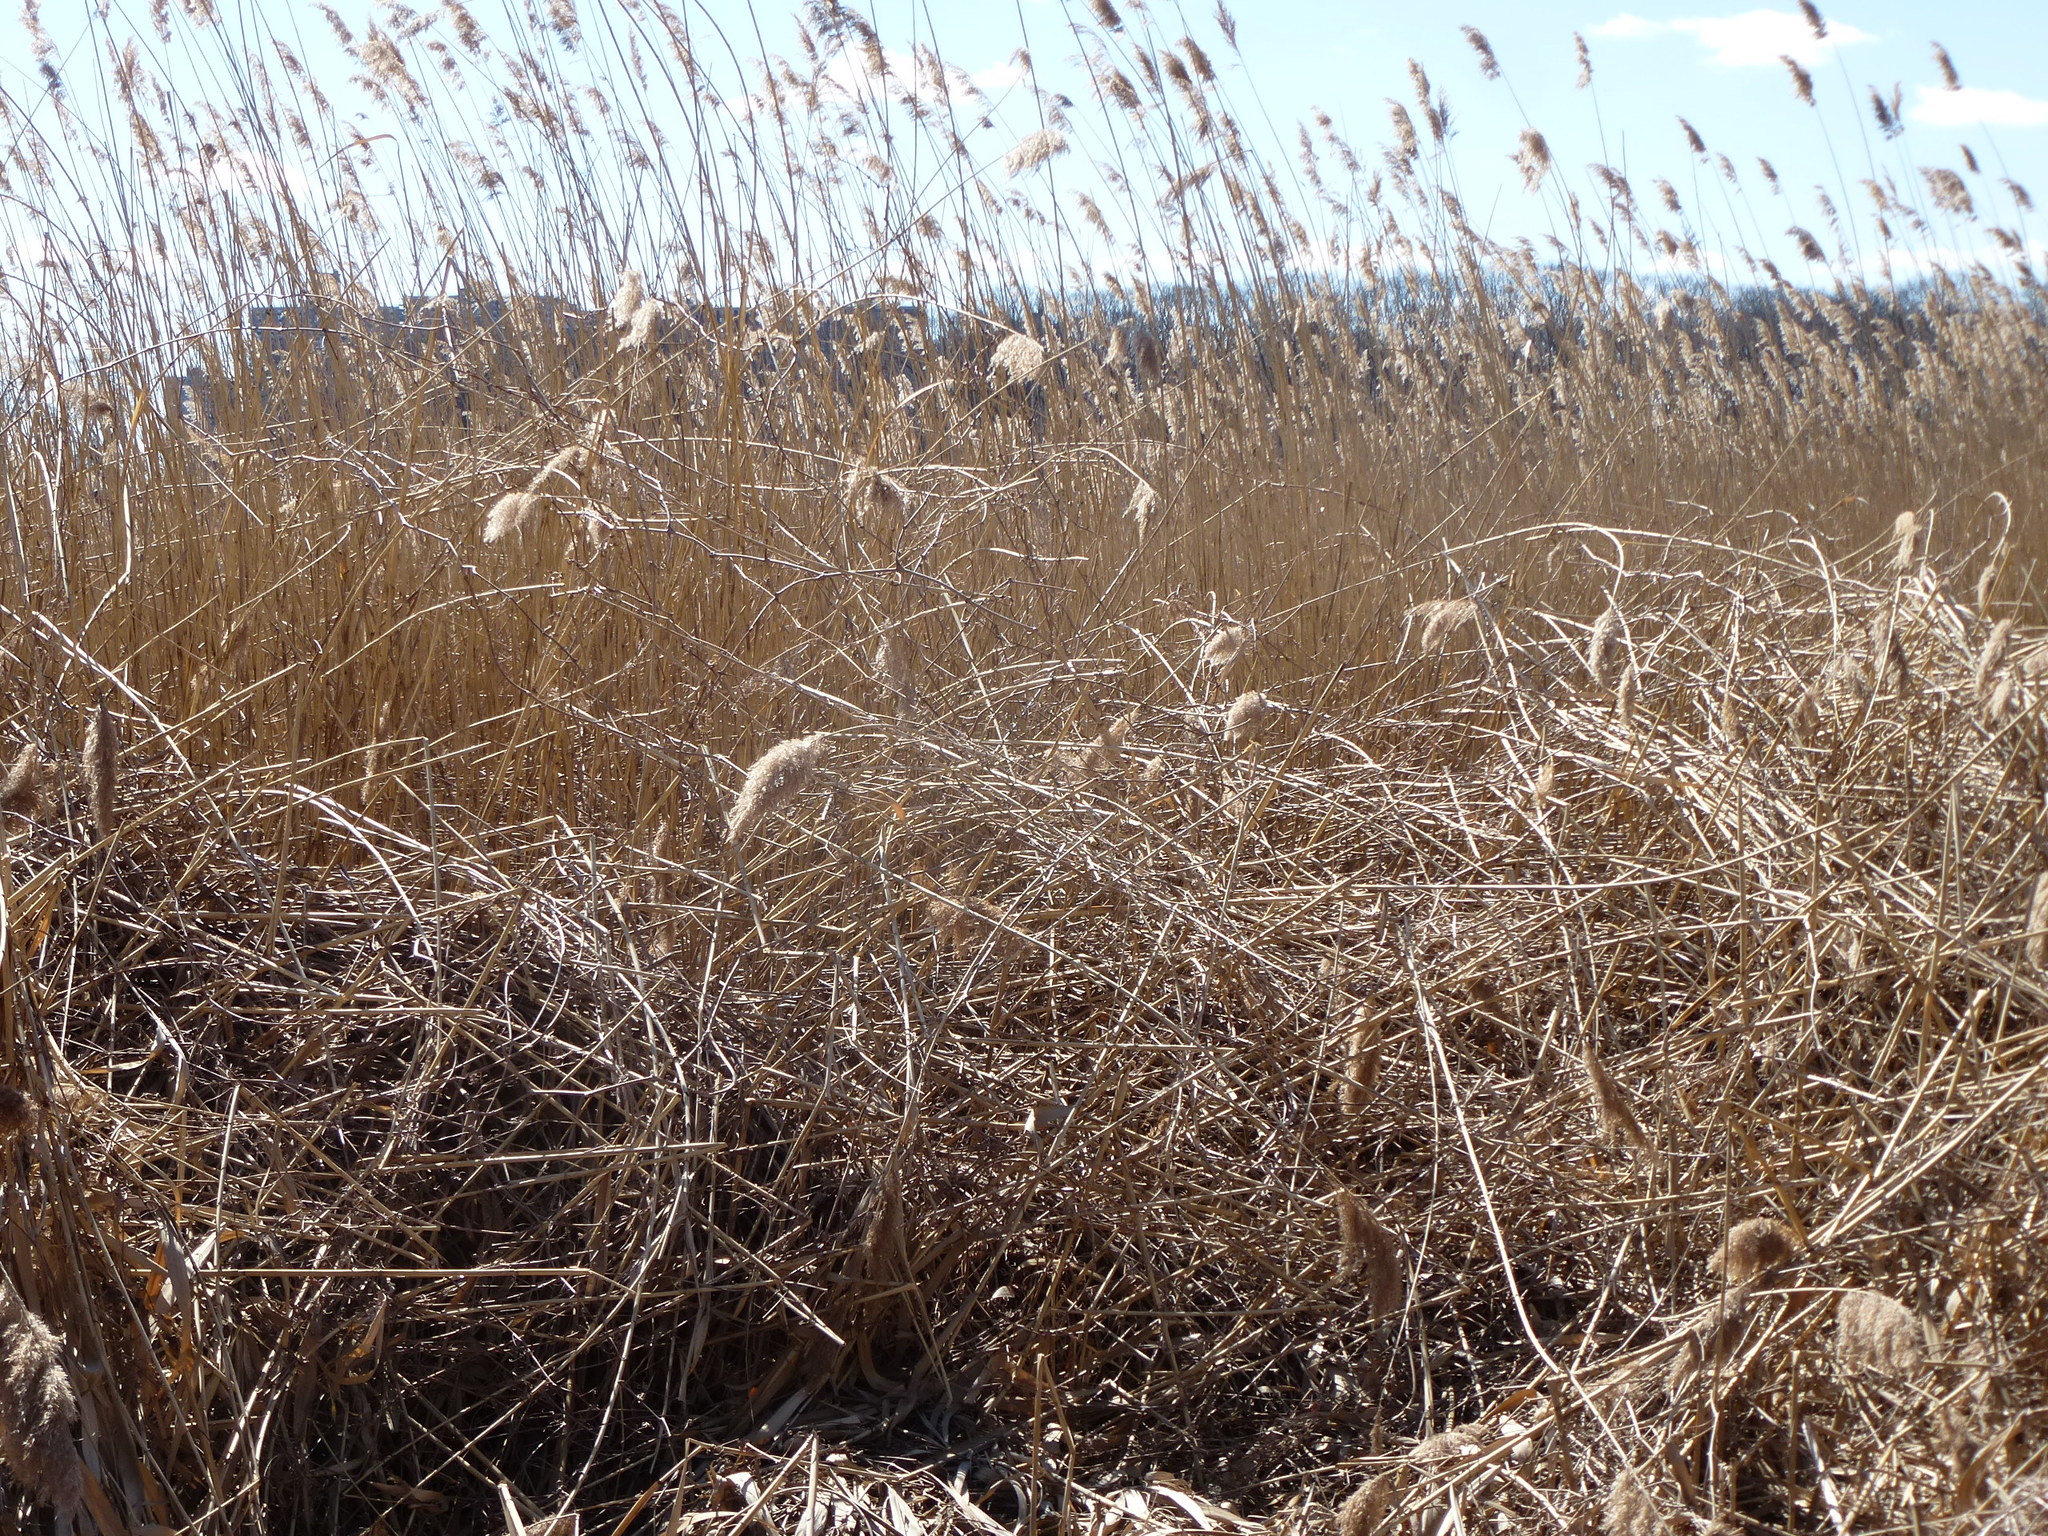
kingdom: Plantae
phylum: Tracheophyta
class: Liliopsida
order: Poales
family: Poaceae
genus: Phragmites
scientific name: Phragmites australis
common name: Common reed
